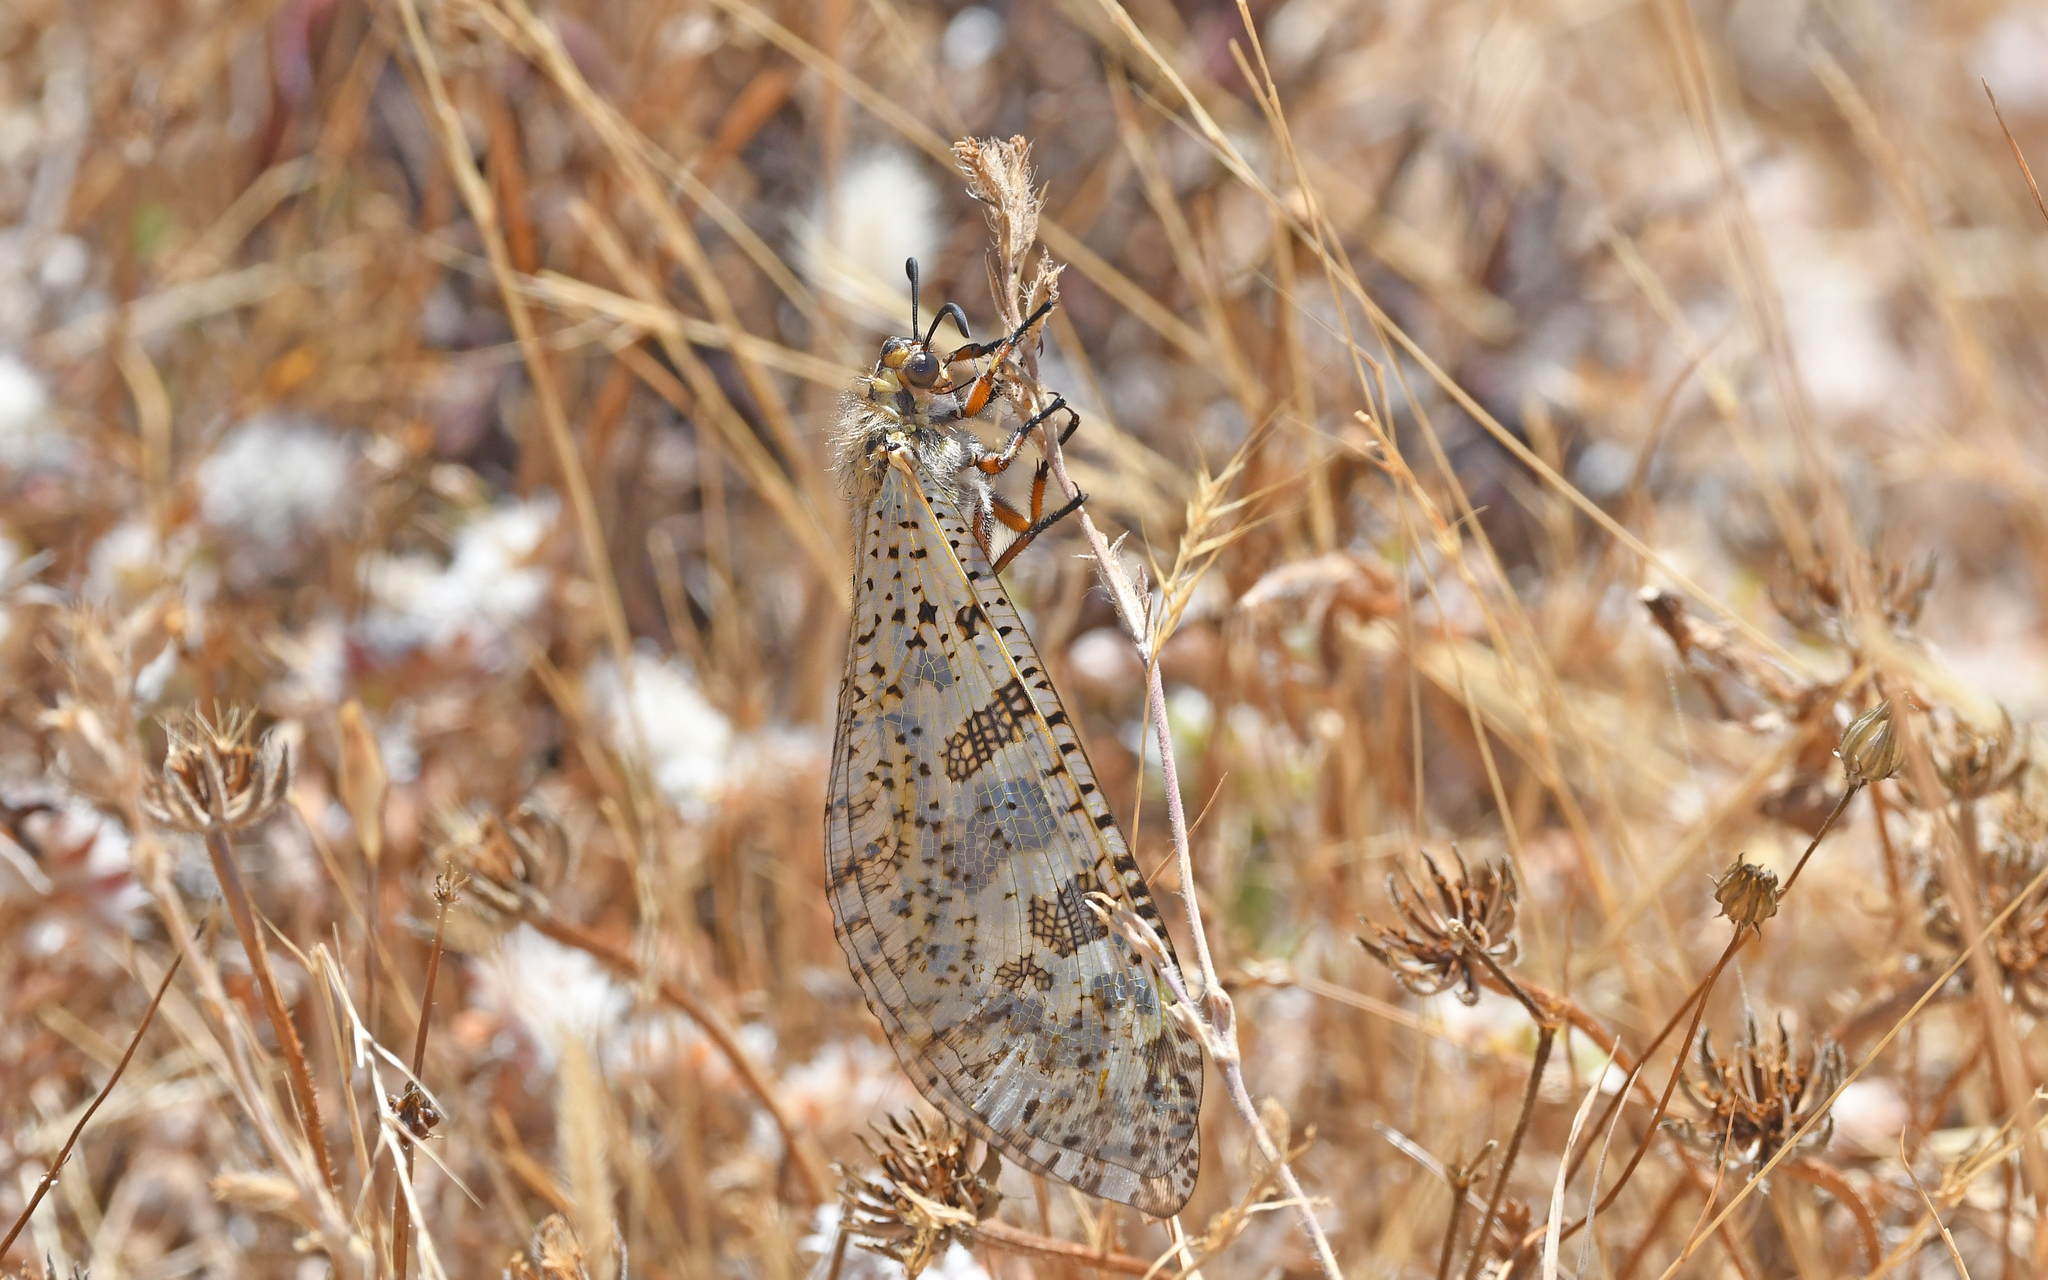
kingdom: Animalia
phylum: Arthropoda
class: Insecta
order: Neuroptera
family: Myrmeleontidae
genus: Palpares
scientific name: Palpares libelluloides
